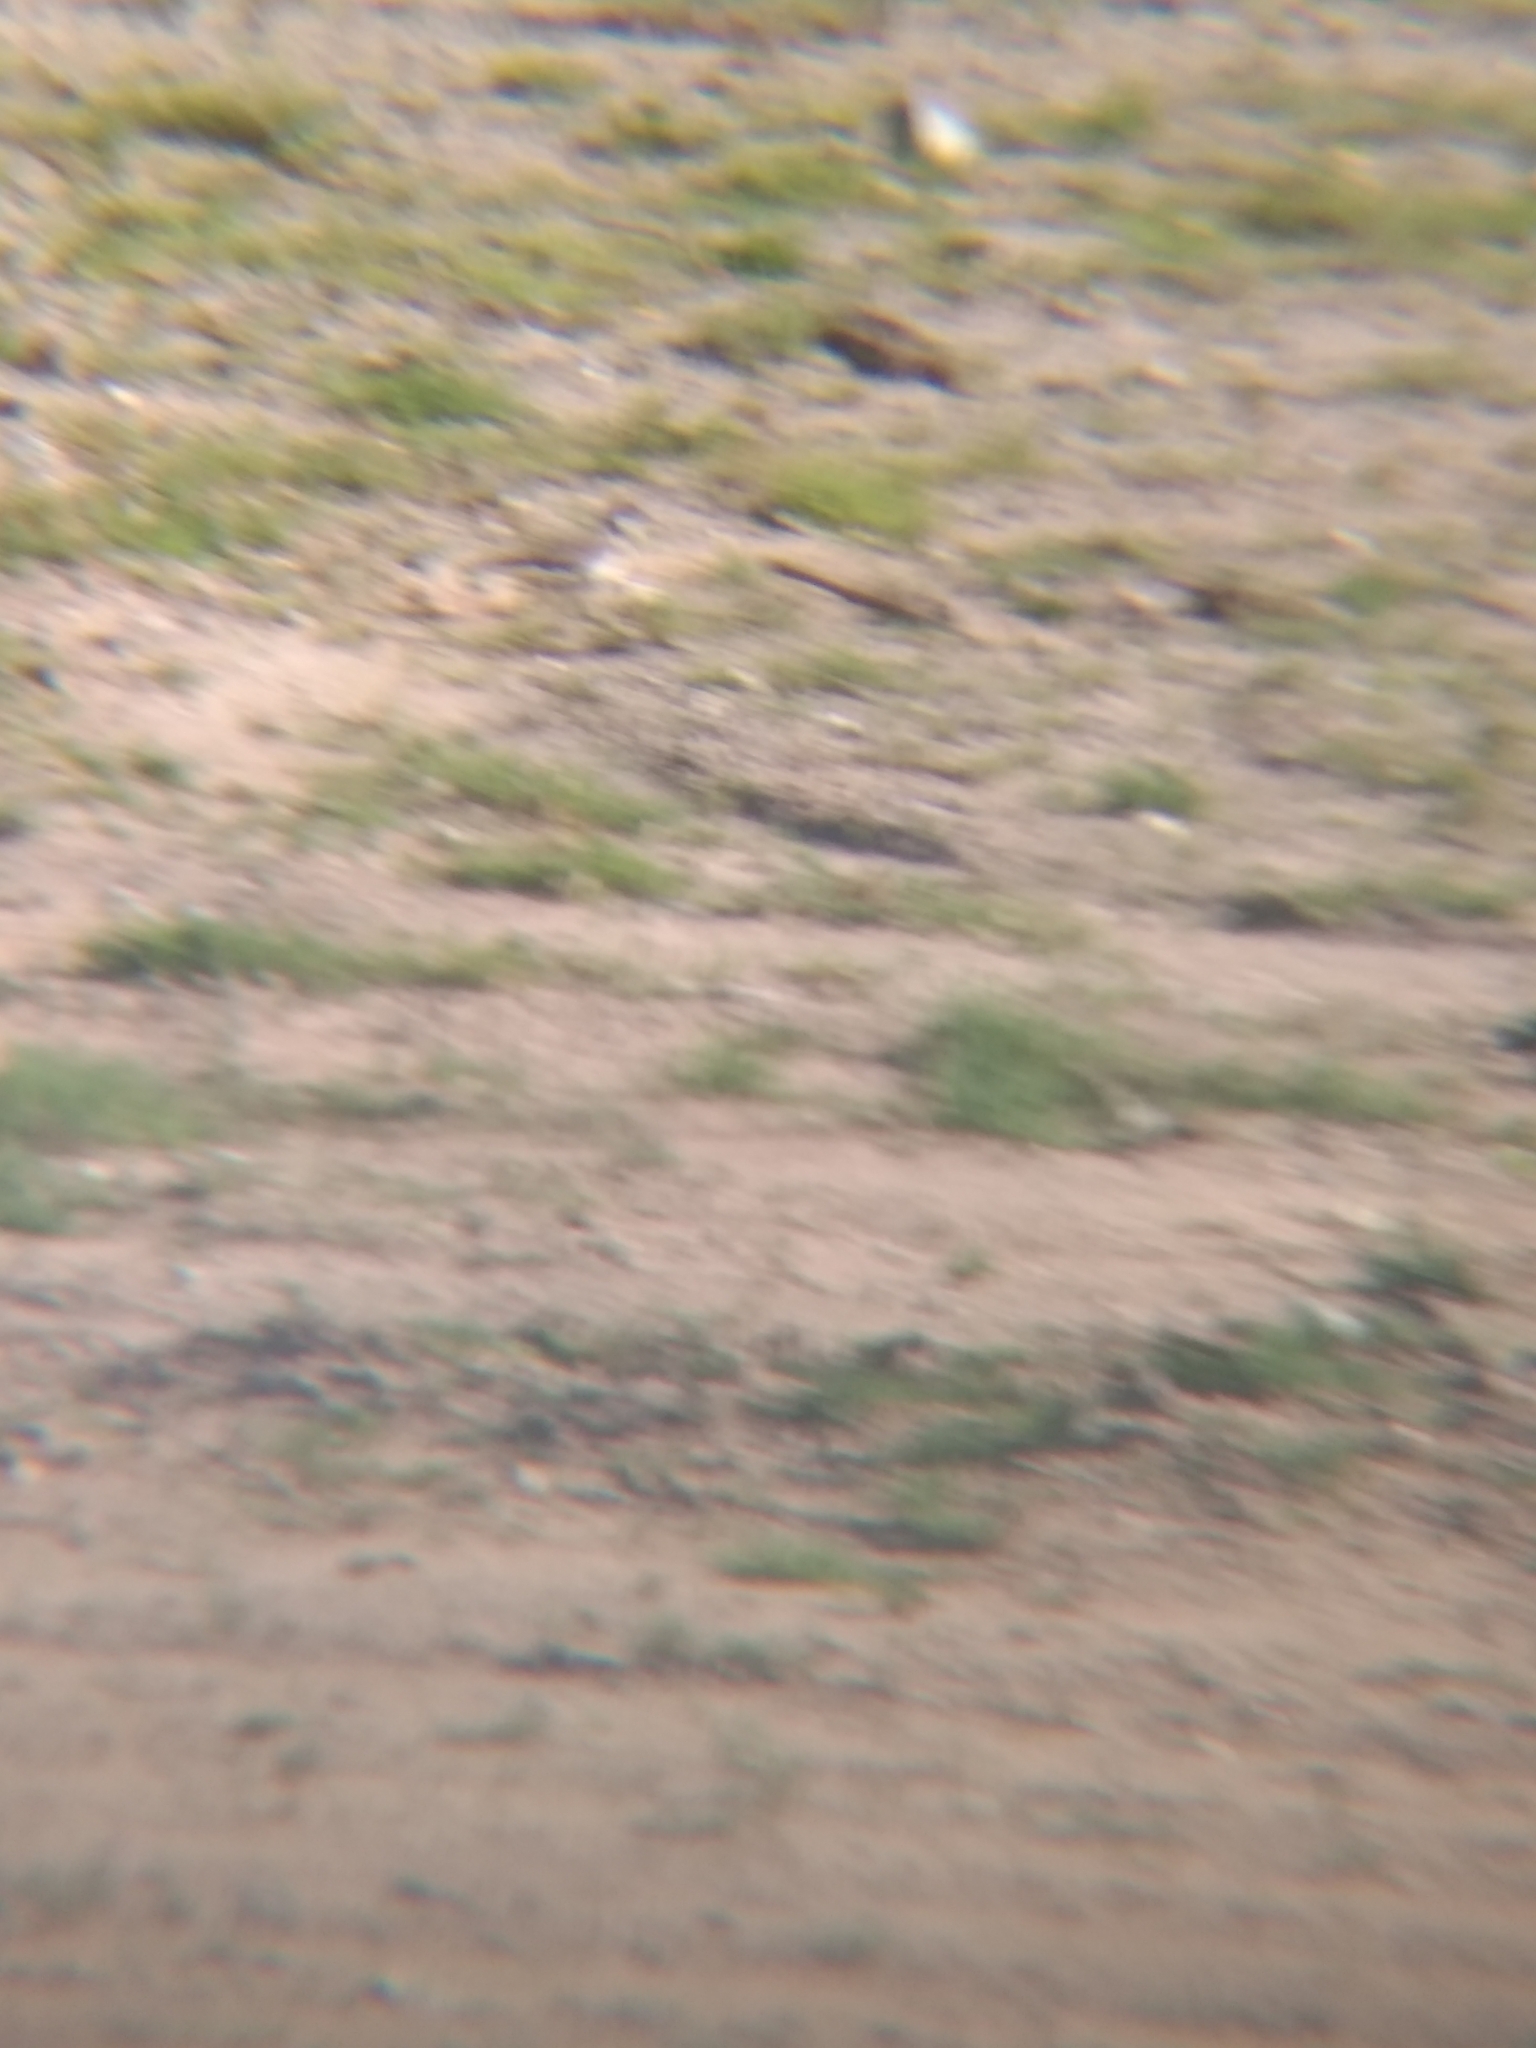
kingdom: Animalia
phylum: Chordata
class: Aves
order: Charadriiformes
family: Charadriidae
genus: Charadrius
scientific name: Charadrius vociferus
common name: Killdeer
